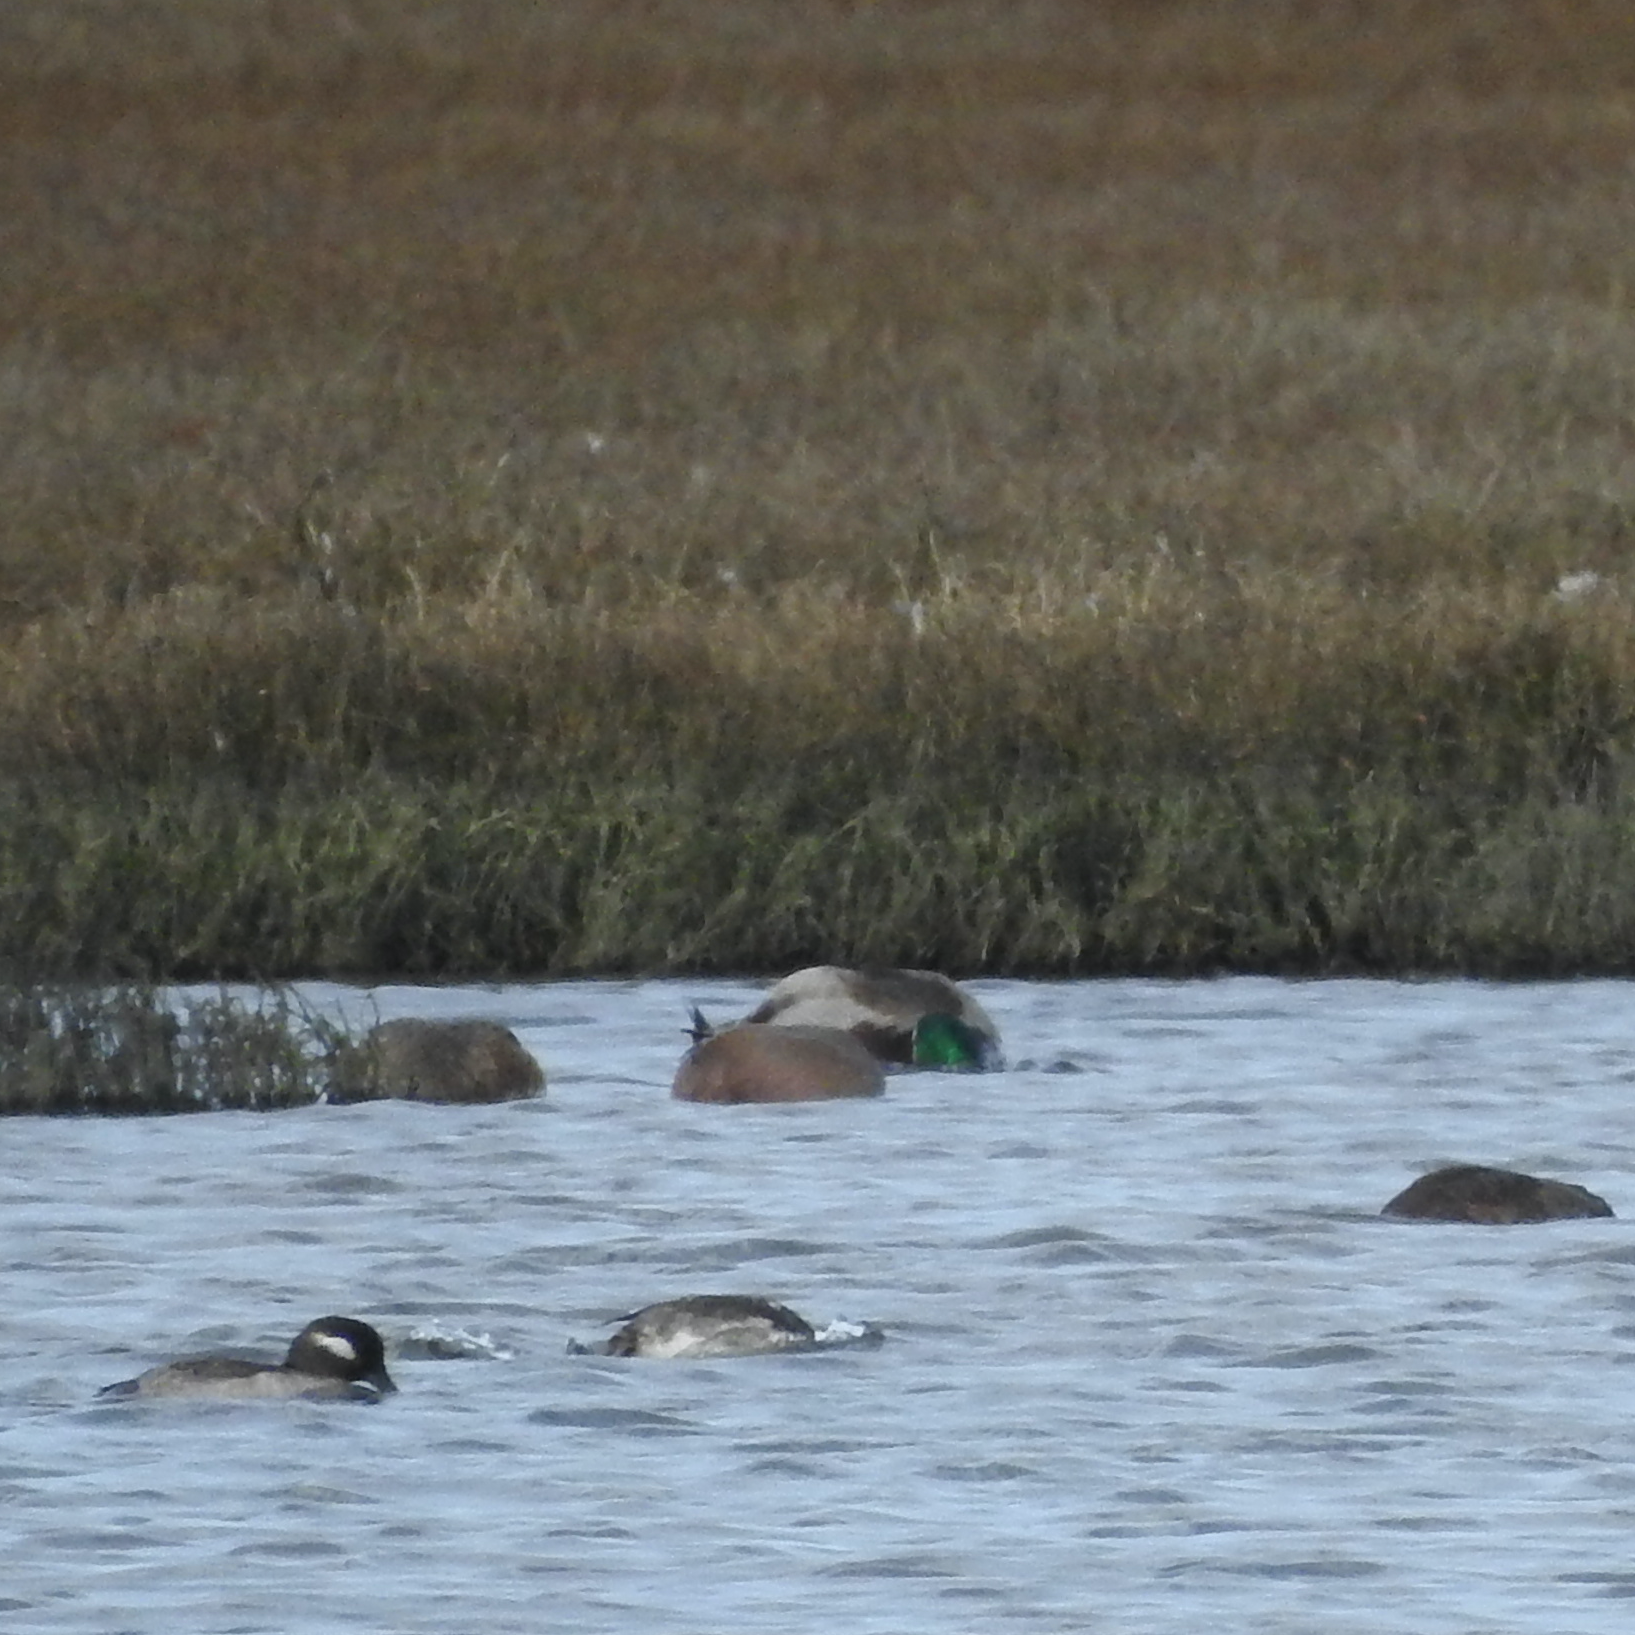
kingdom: Animalia
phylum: Chordata
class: Aves
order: Anseriformes
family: Anatidae
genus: Anas
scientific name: Anas platyrhynchos
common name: Mallard
